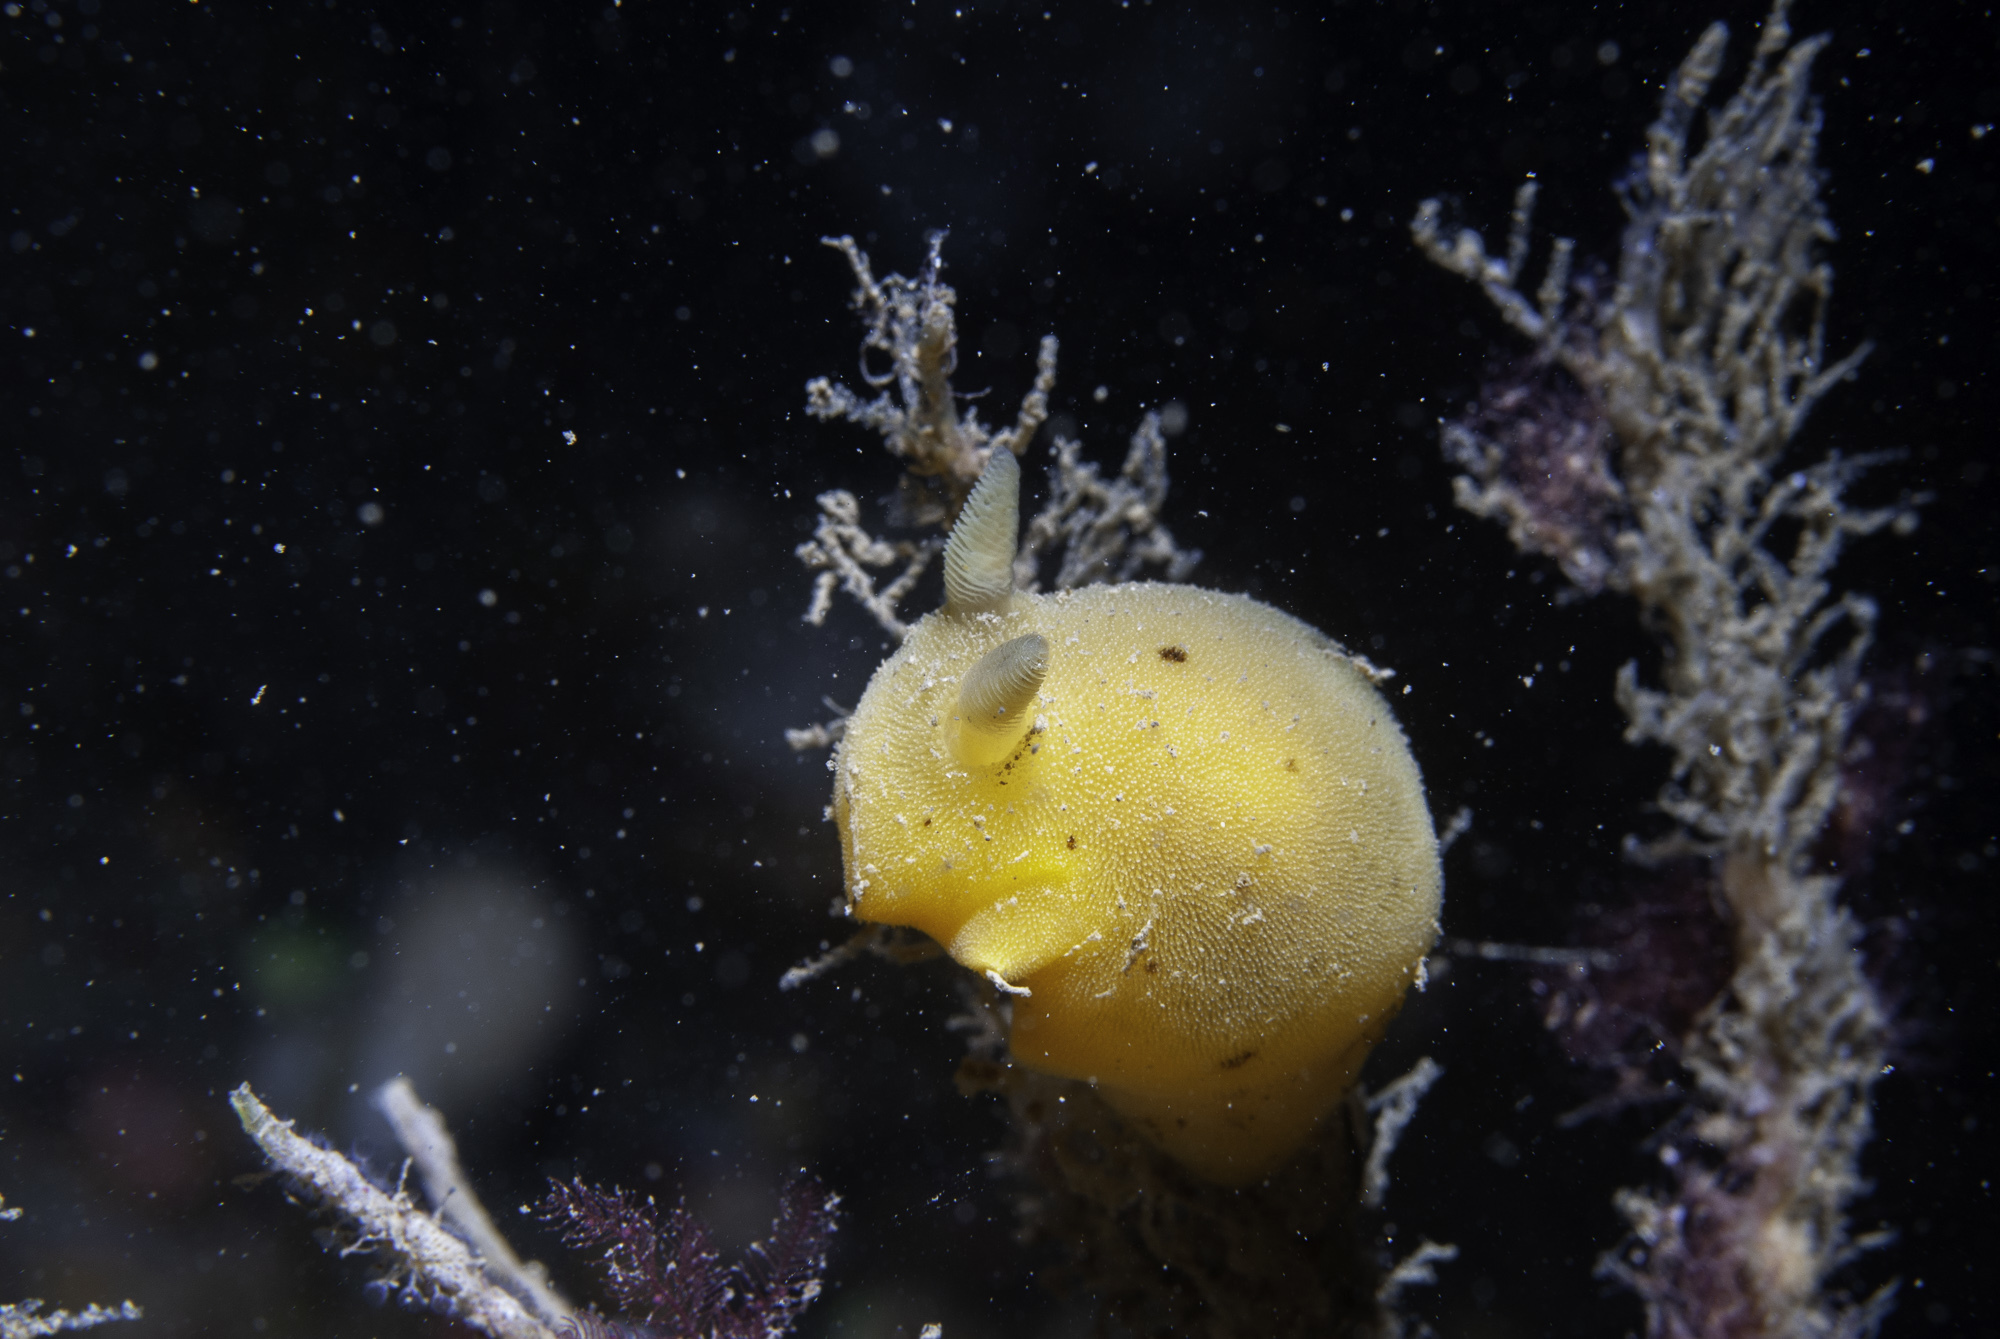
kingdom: Animalia
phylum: Mollusca
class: Gastropoda
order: Nudibranchia
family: Discodorididae
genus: Jorunna
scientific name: Jorunna artsdatabankia
